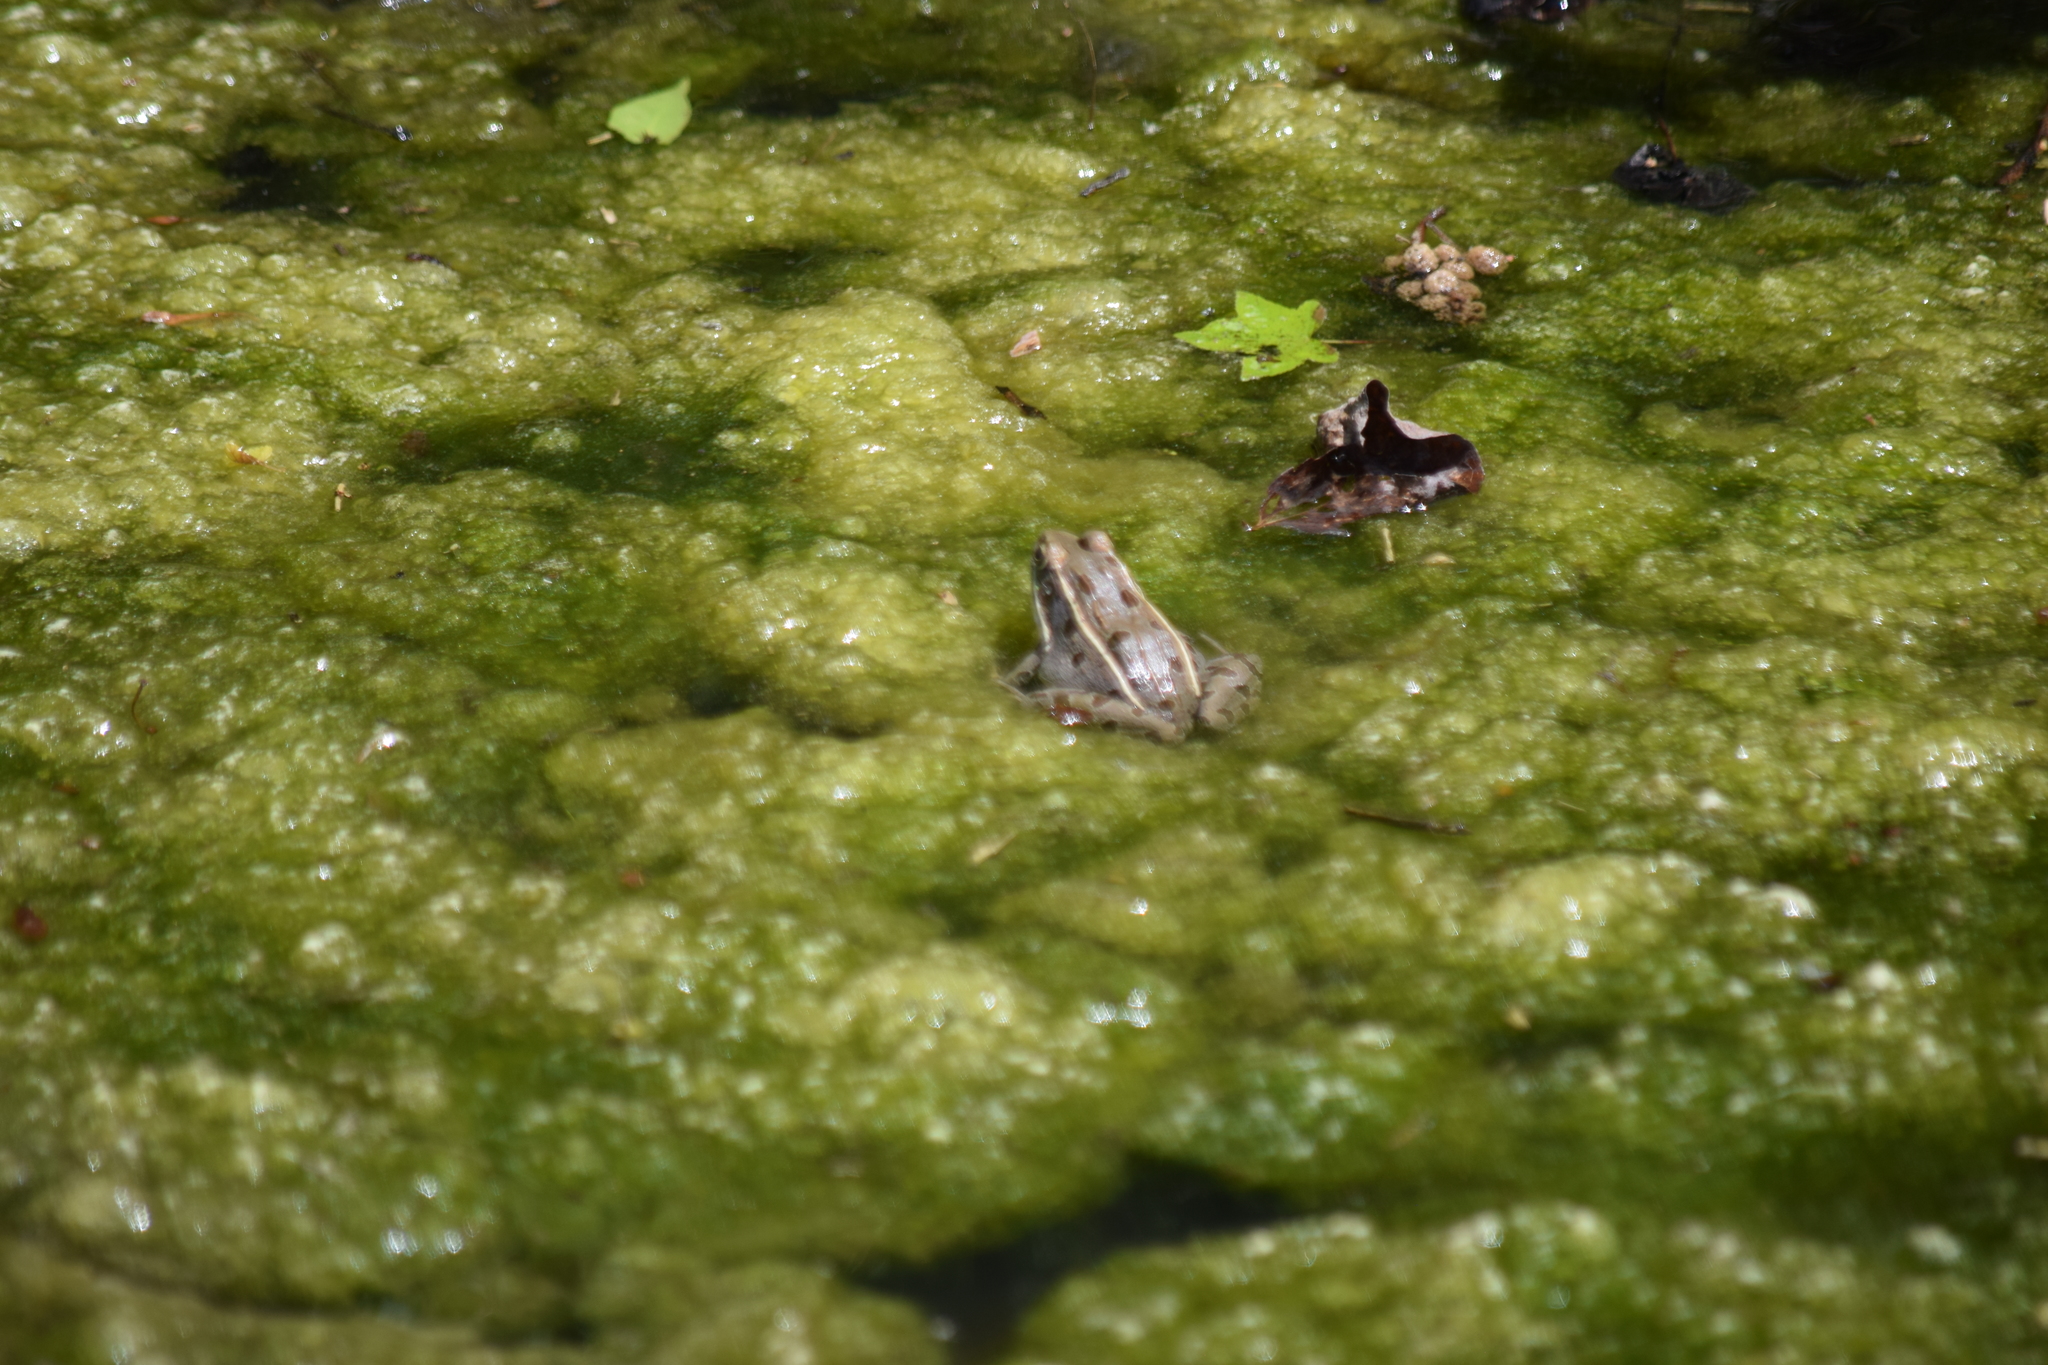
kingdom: Animalia
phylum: Chordata
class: Amphibia
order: Anura
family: Ranidae
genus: Lithobates
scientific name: Lithobates sphenocephalus
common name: Southern leopard frog
